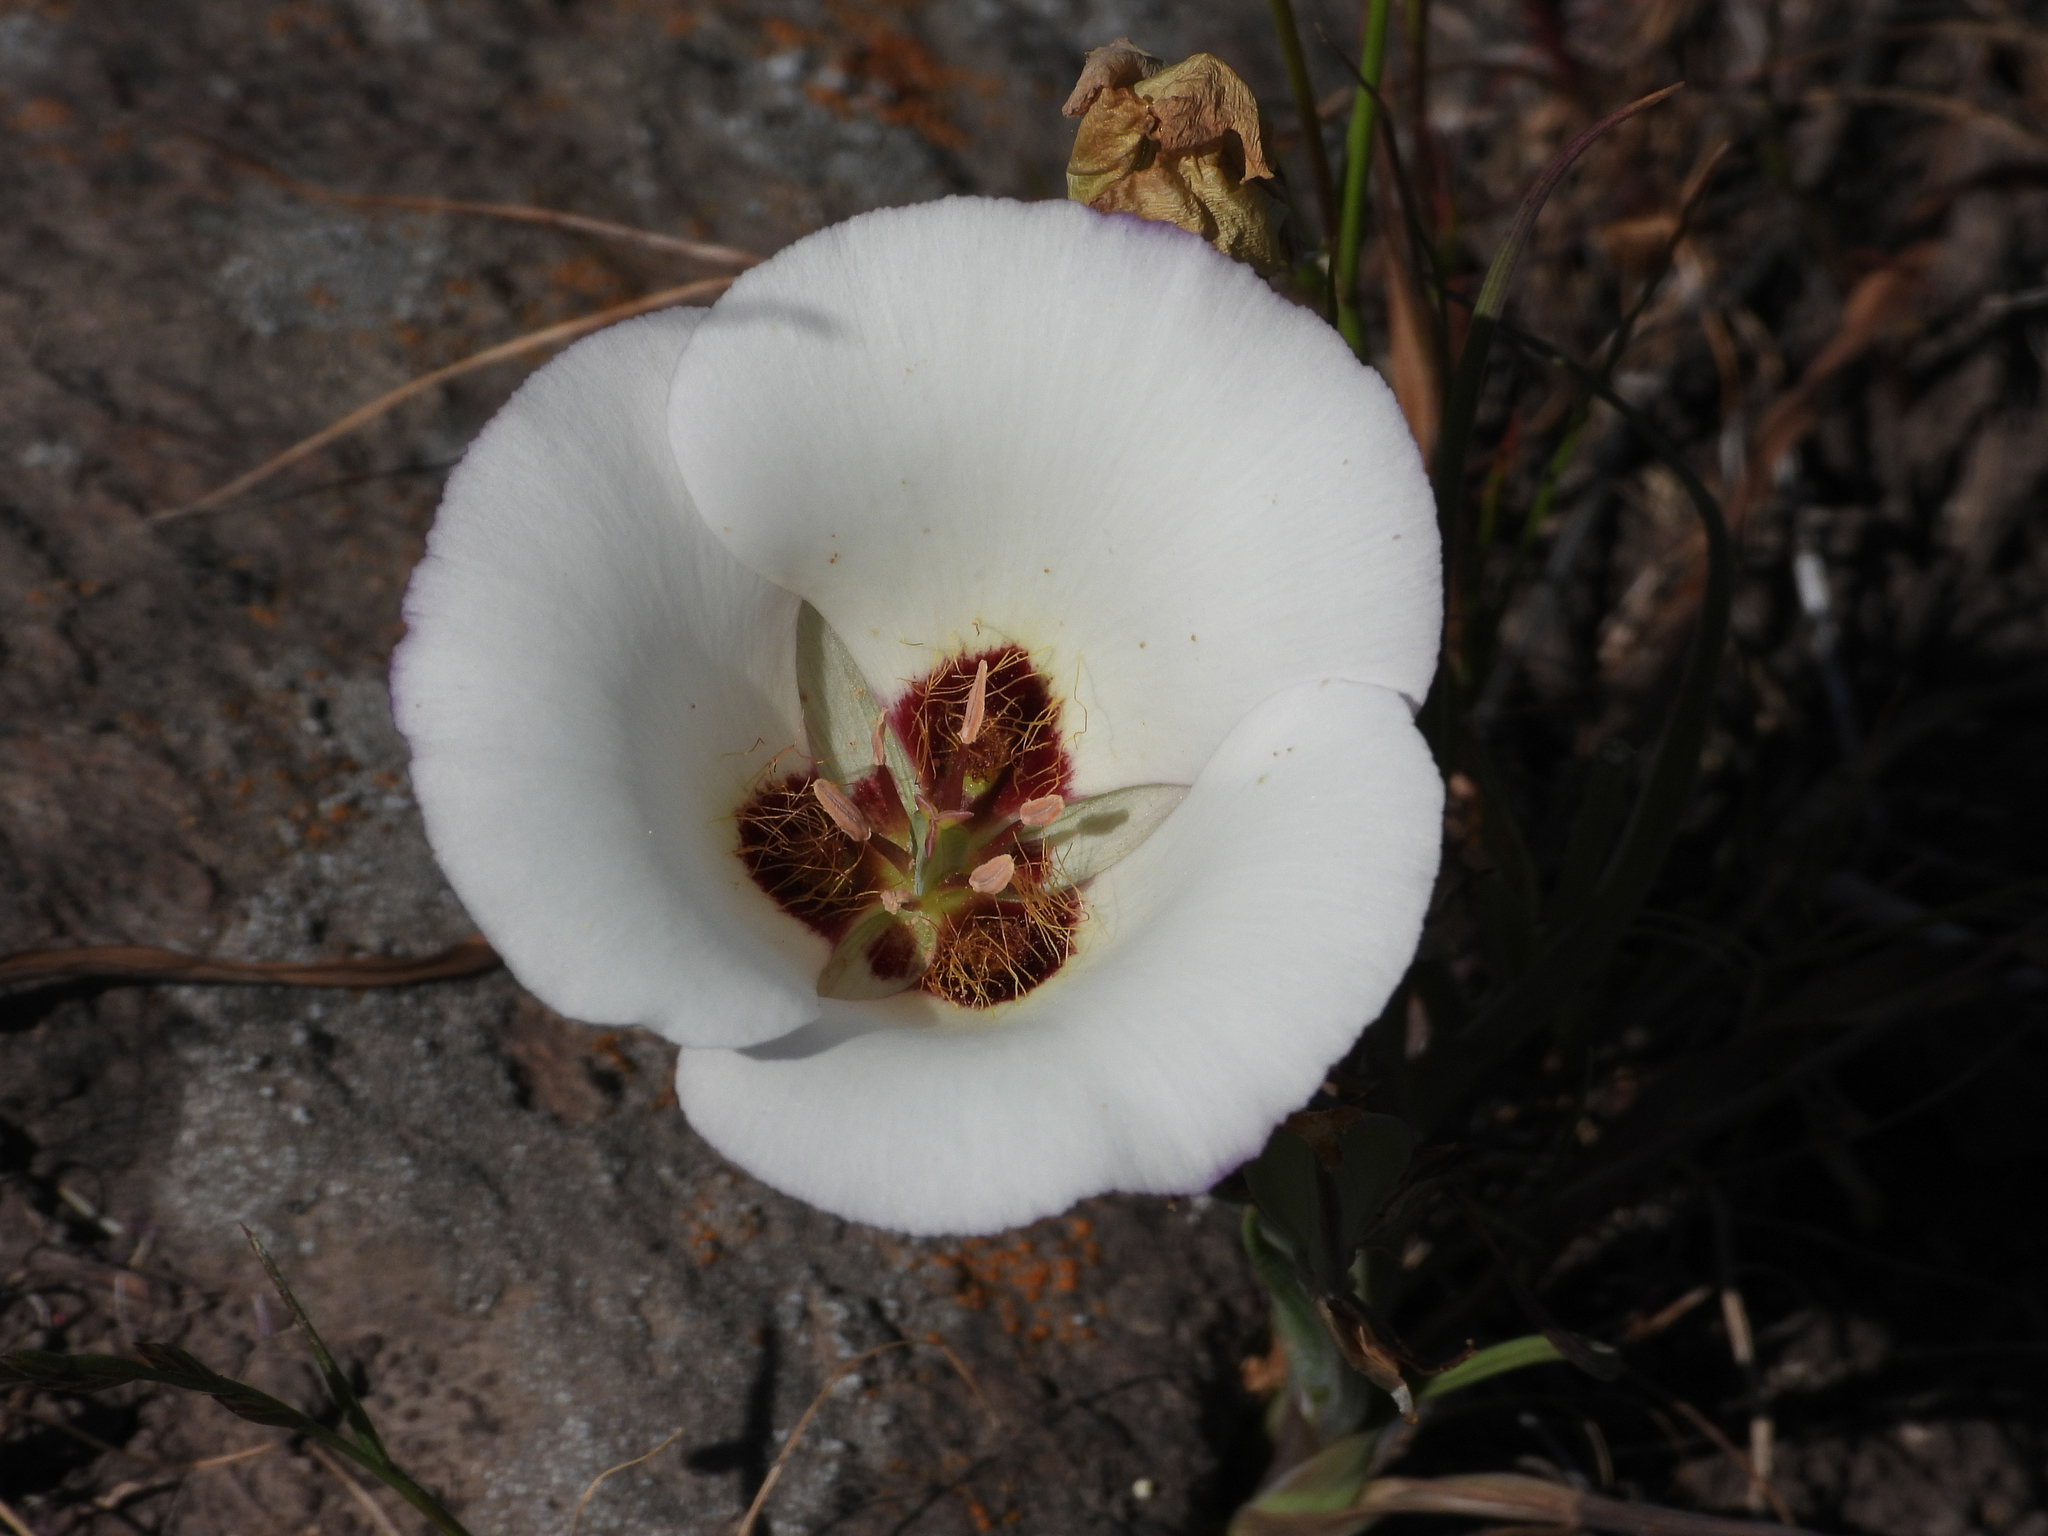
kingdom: Plantae
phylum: Tracheophyta
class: Liliopsida
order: Liliales
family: Liliaceae
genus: Calochortus
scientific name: Calochortus catalinae
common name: Catalina mariposa-lily
